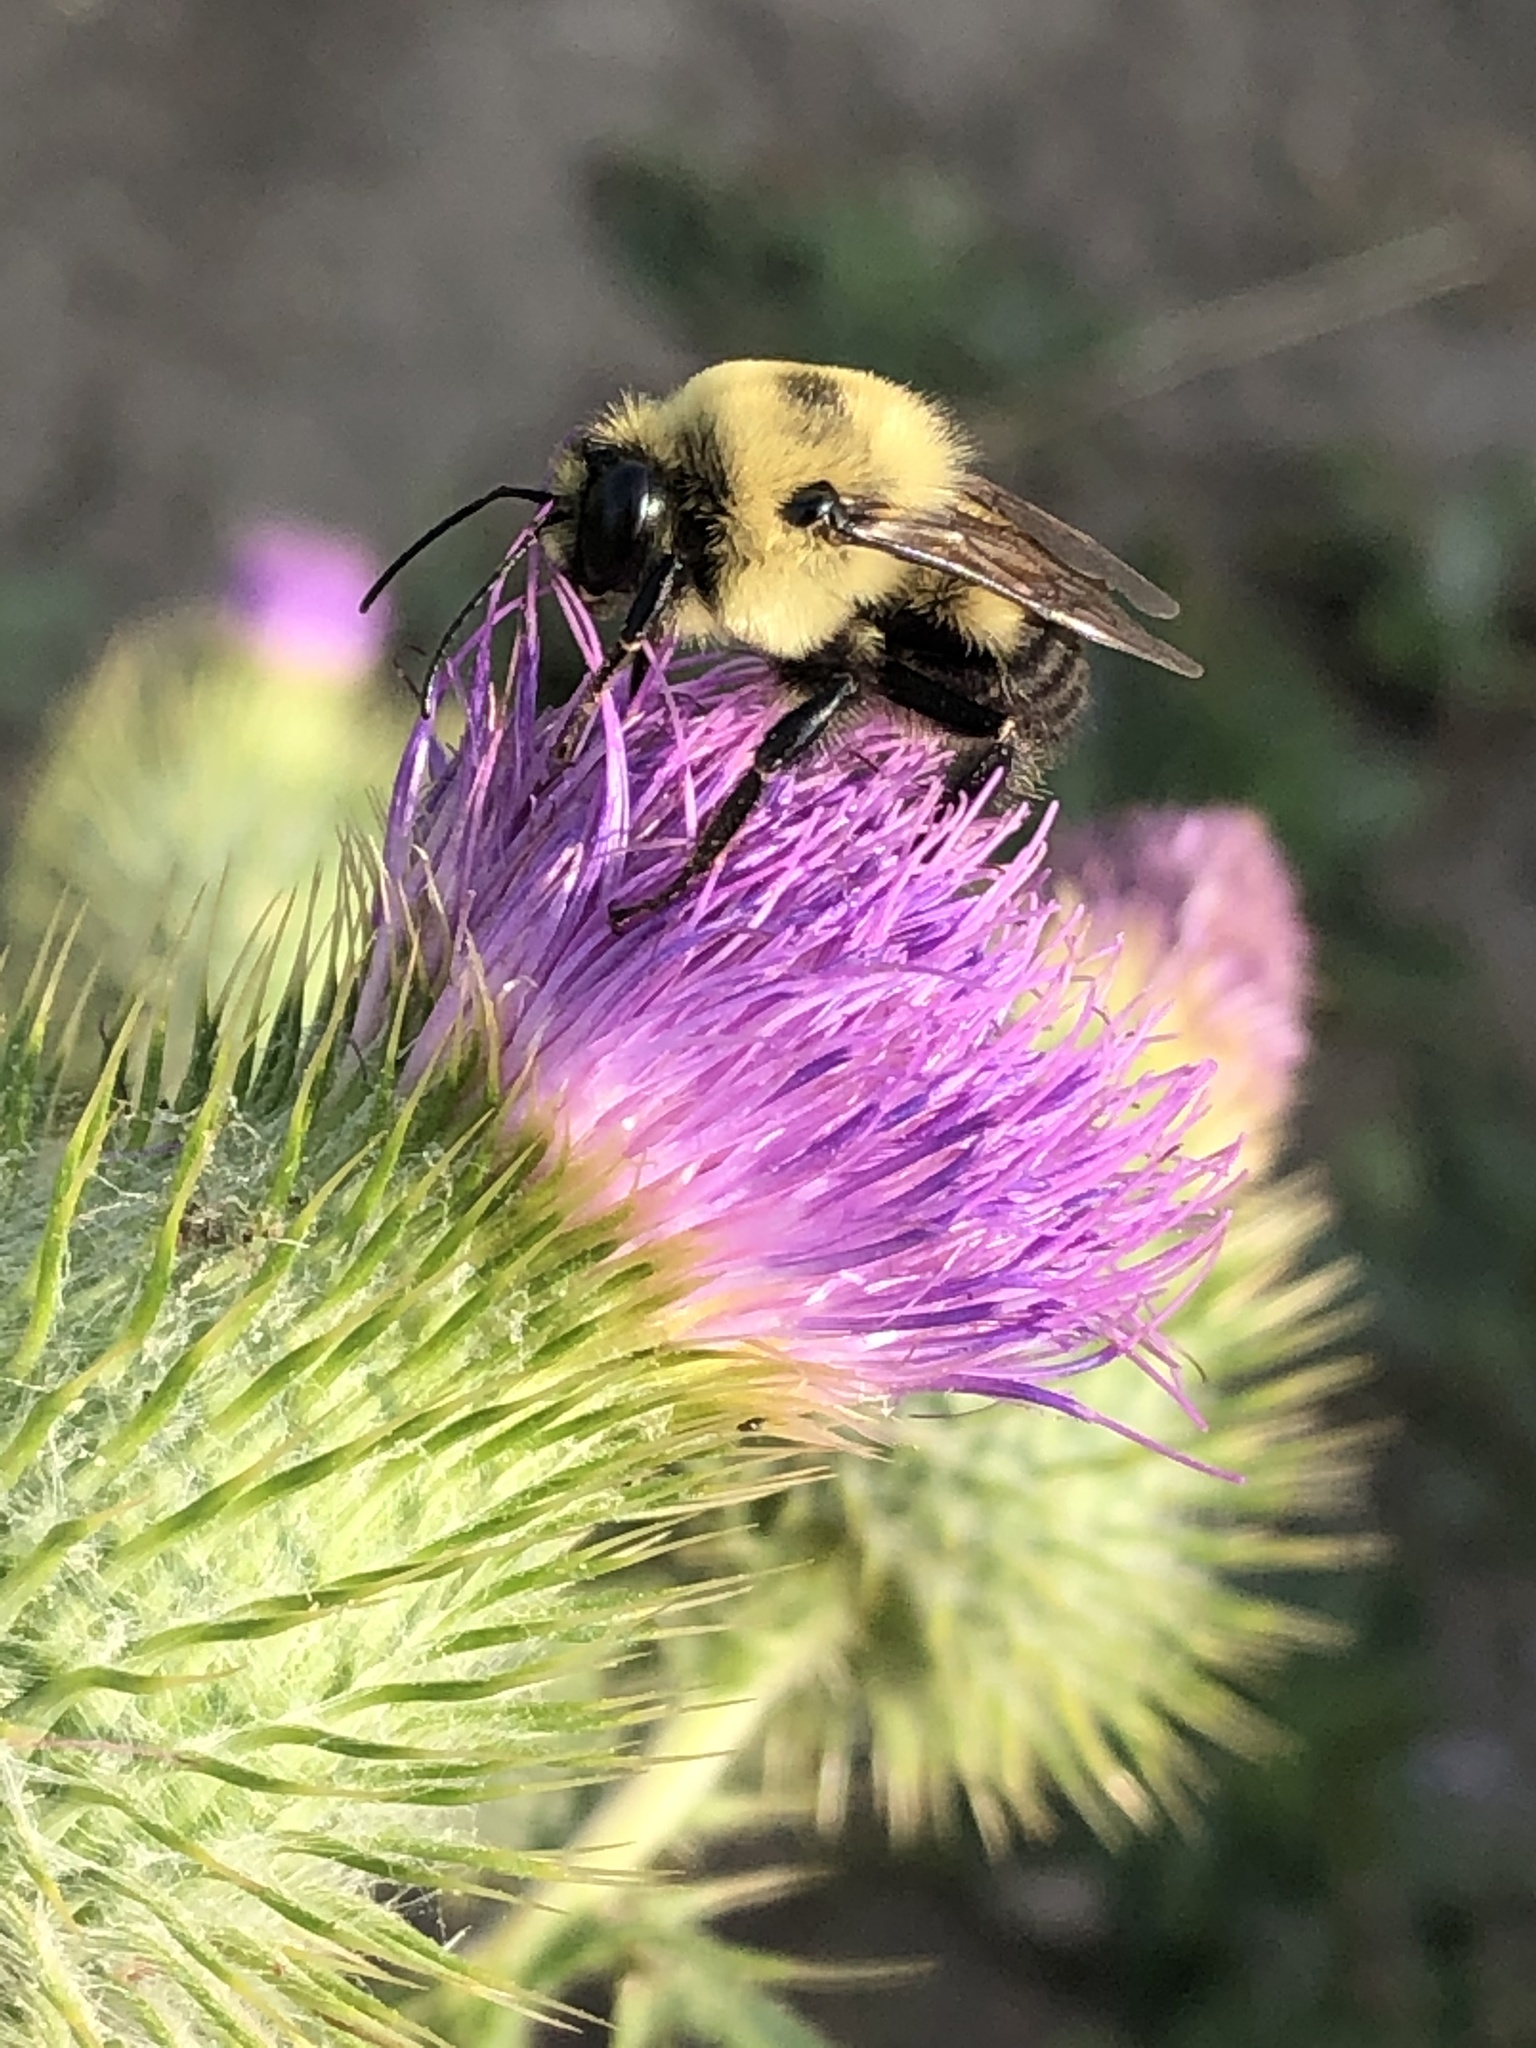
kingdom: Animalia
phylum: Arthropoda
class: Insecta
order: Hymenoptera
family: Apidae
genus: Bombus
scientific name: Bombus griseocollis
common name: Brown-belted bumble bee
